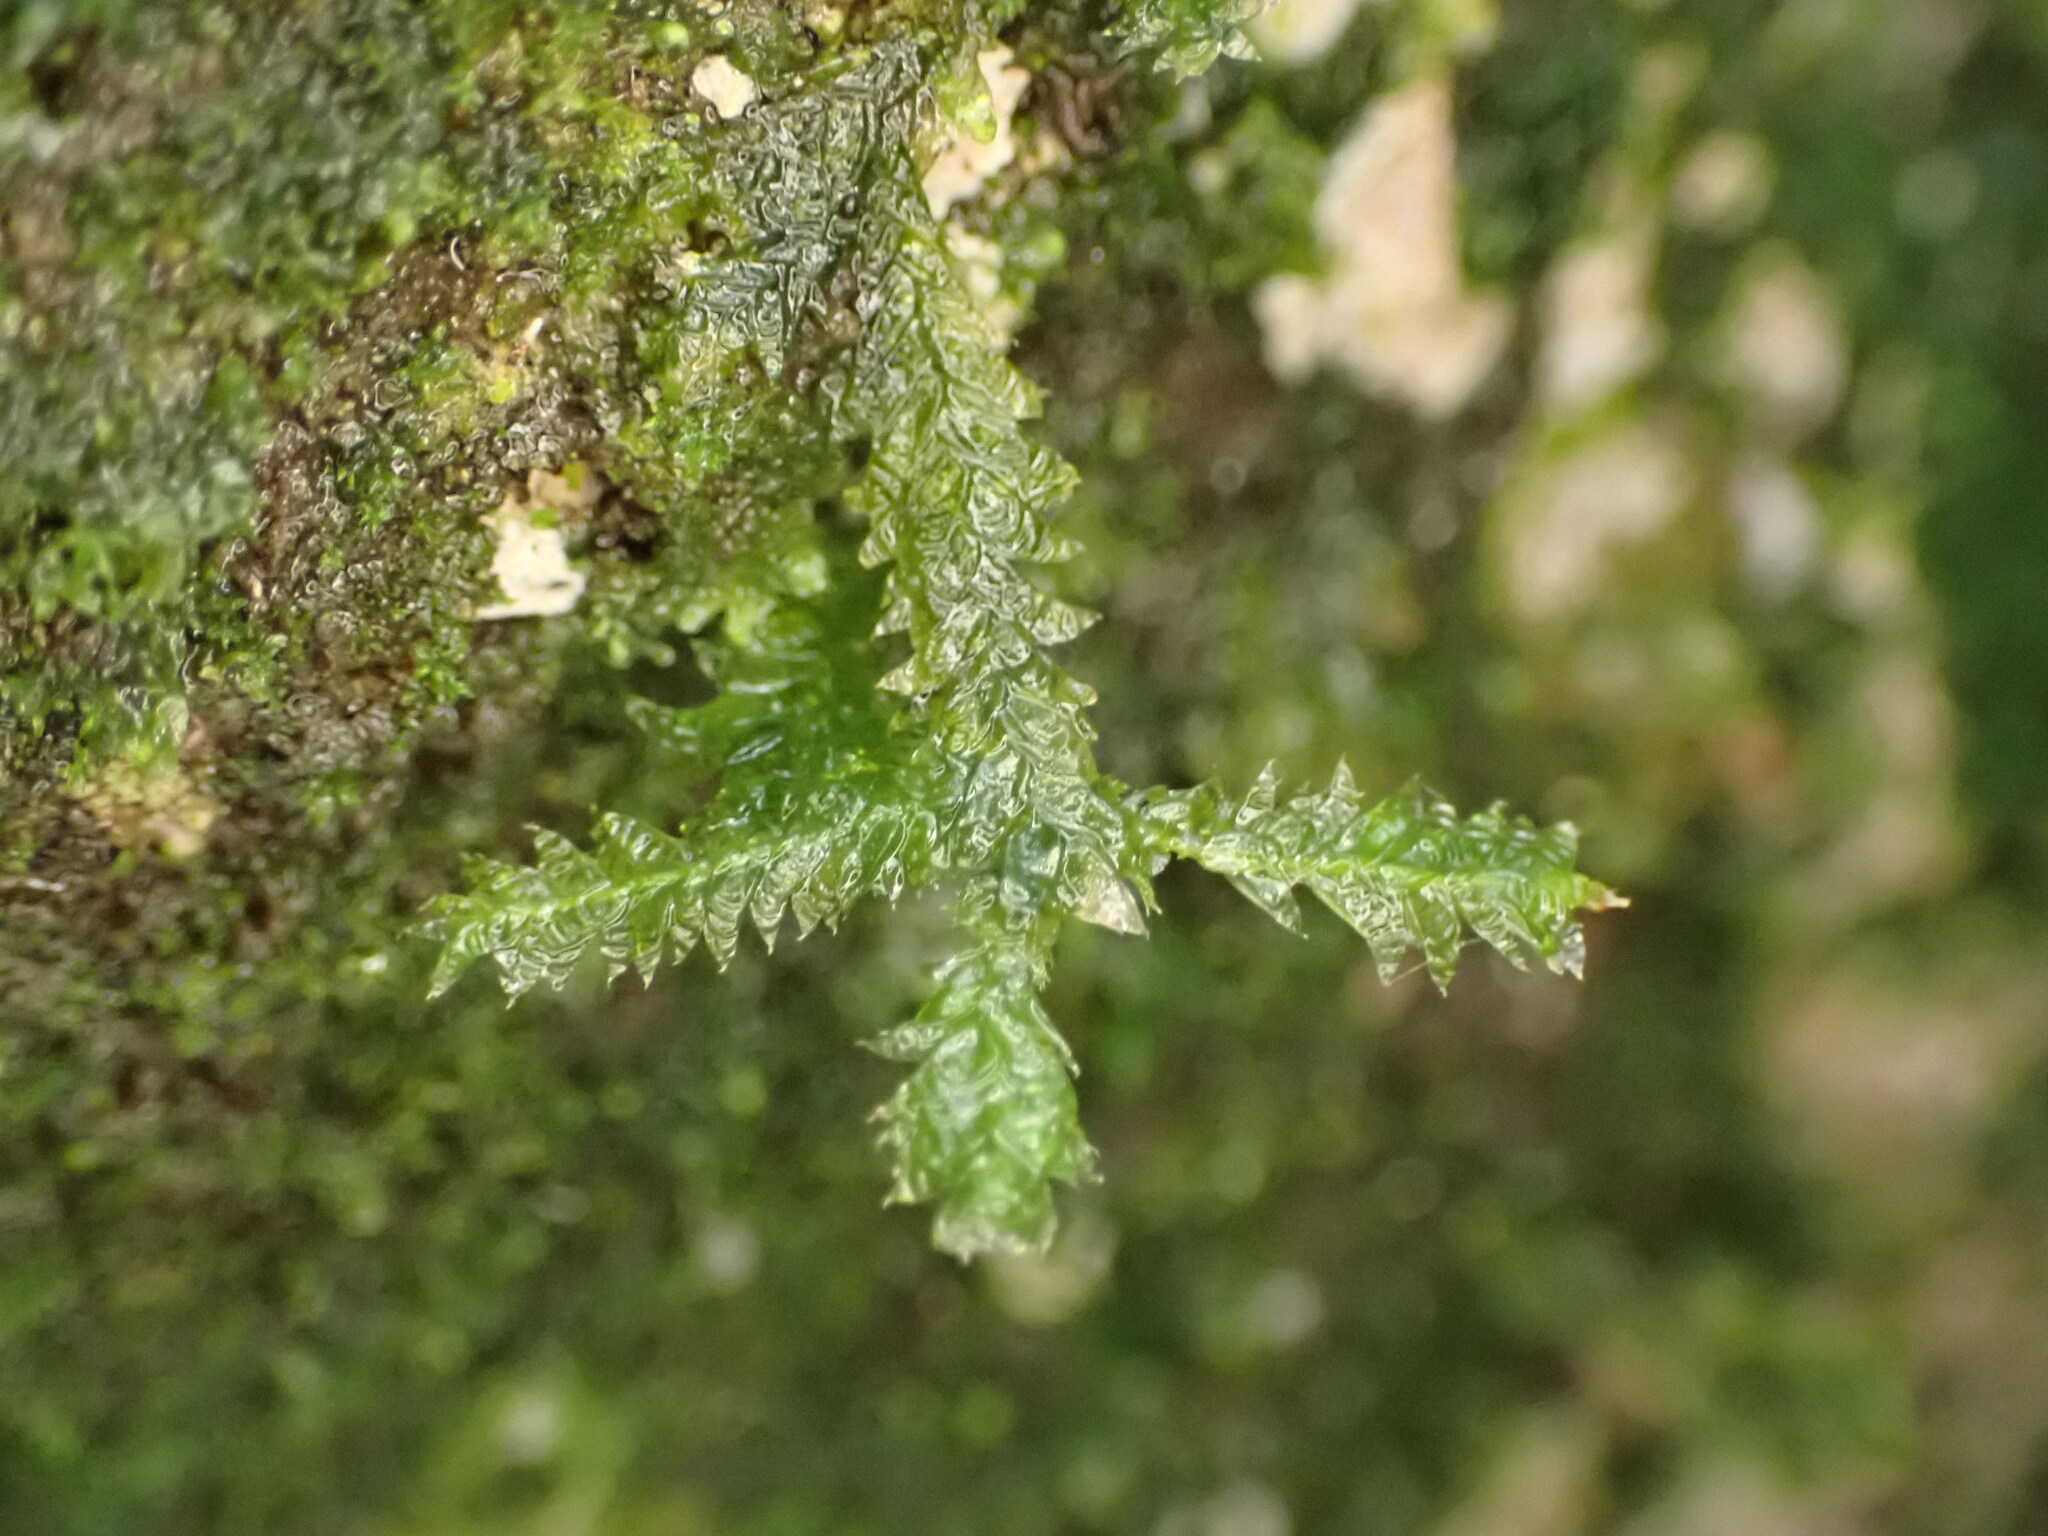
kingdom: Plantae
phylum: Bryophyta
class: Bryopsida
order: Hypnales
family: Neckeraceae
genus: Alleniella
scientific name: Alleniella hymenodonta
